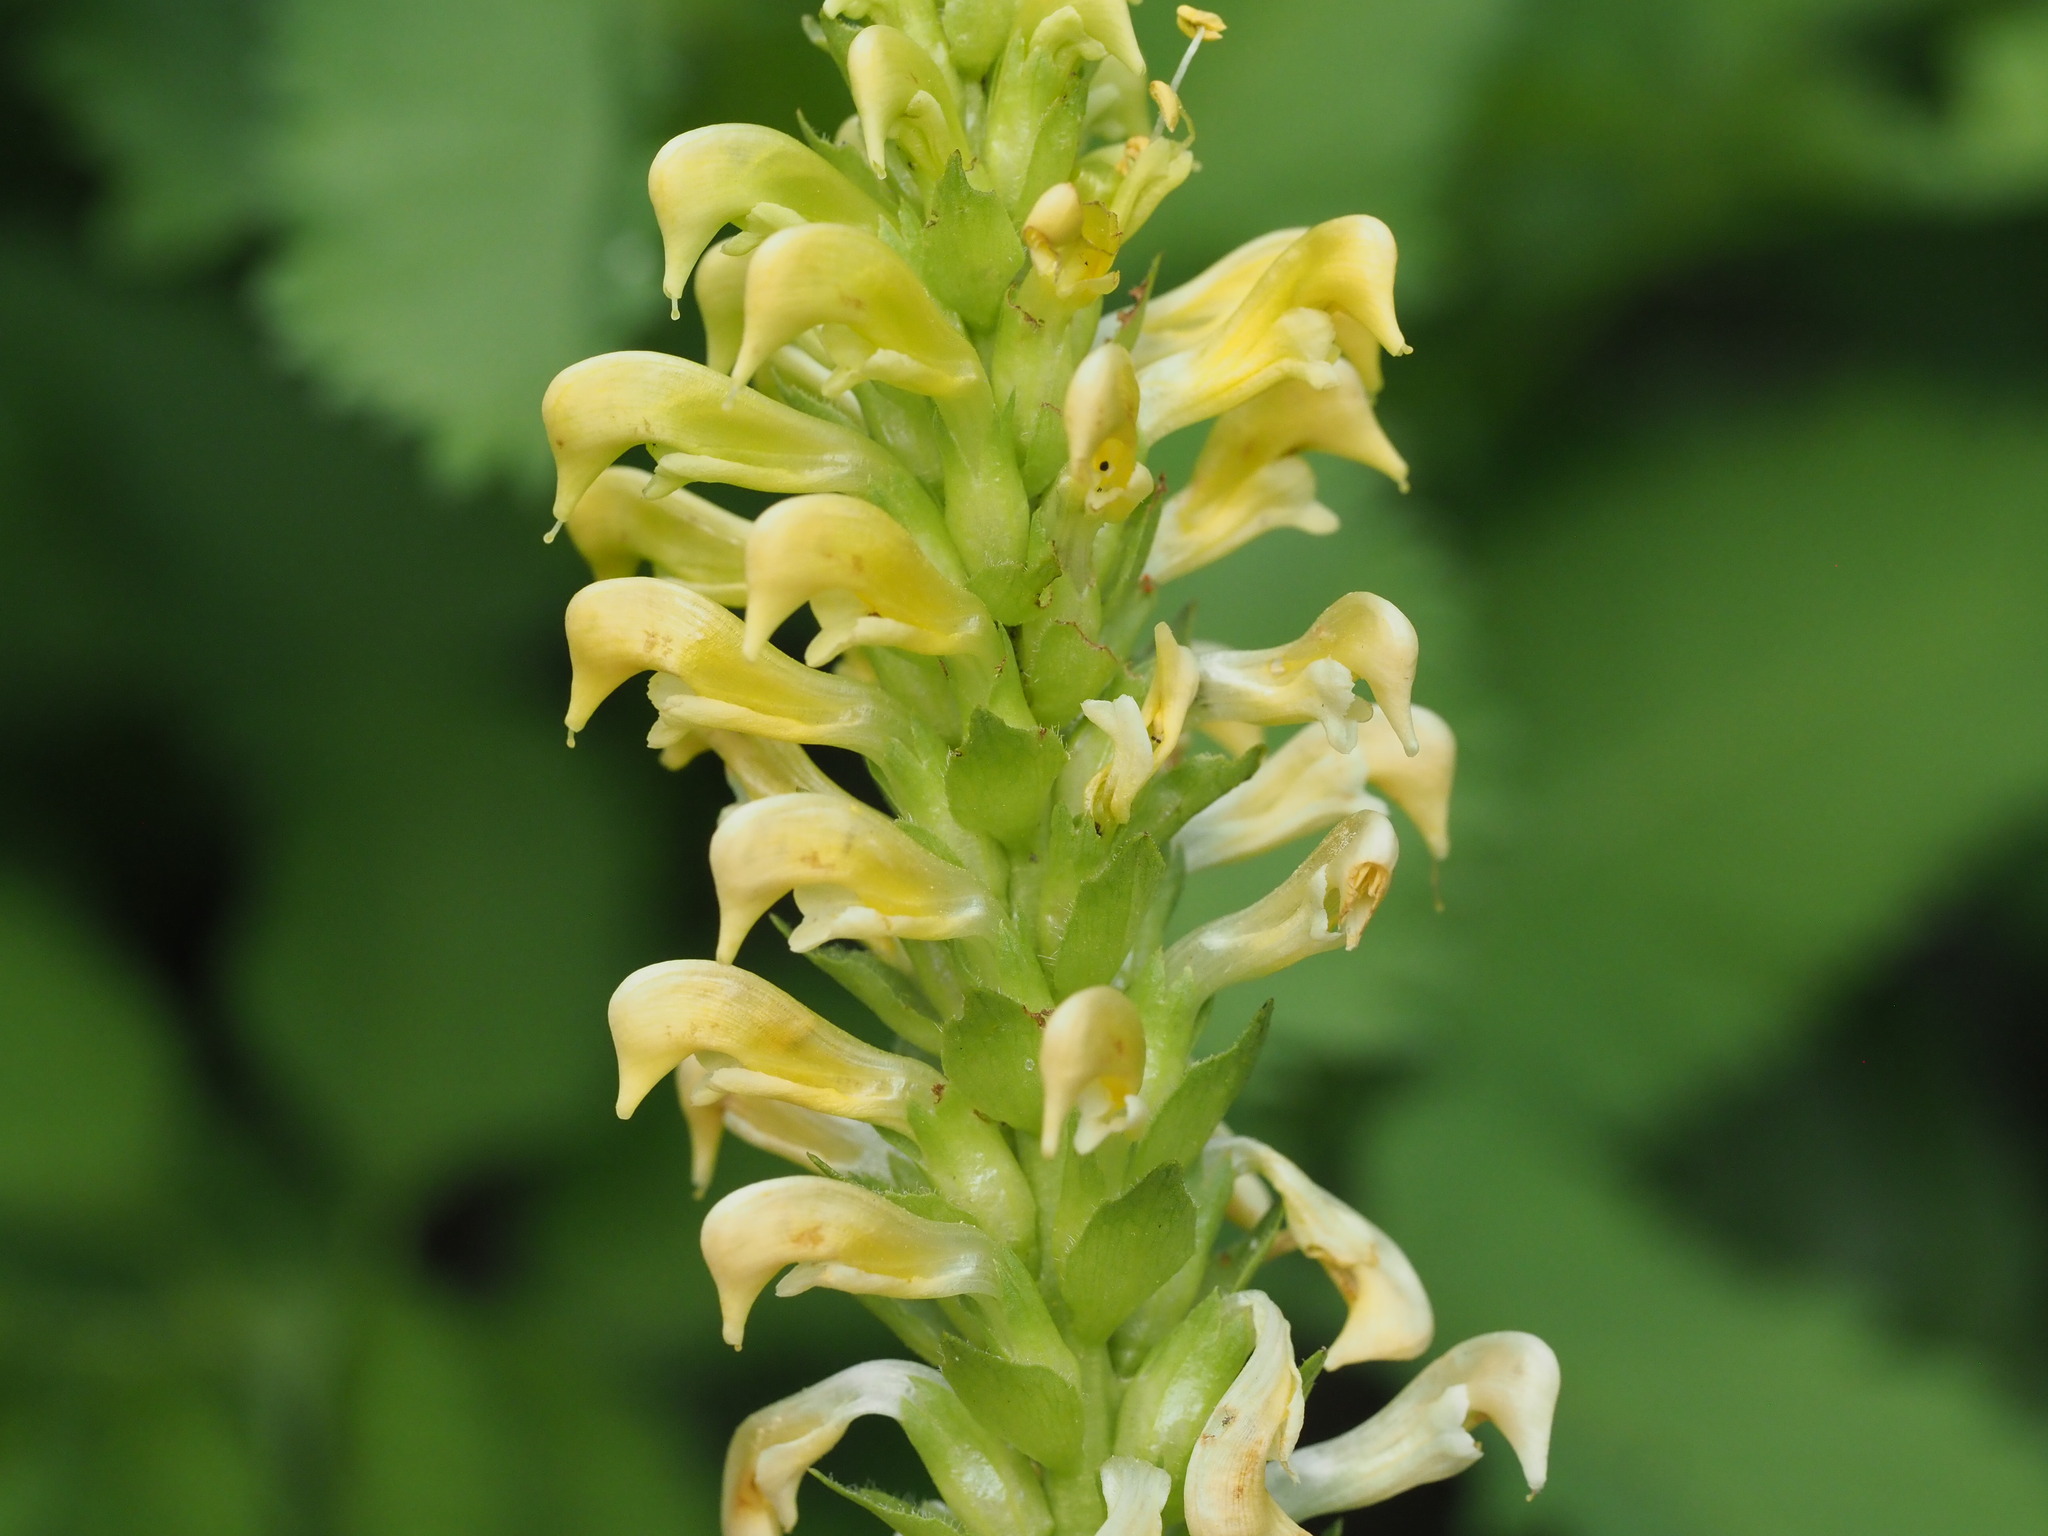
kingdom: Plantae
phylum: Tracheophyta
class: Magnoliopsida
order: Lamiales
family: Orobanchaceae
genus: Pedicularis
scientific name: Pedicularis bracteosa
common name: Bracted lousewort
